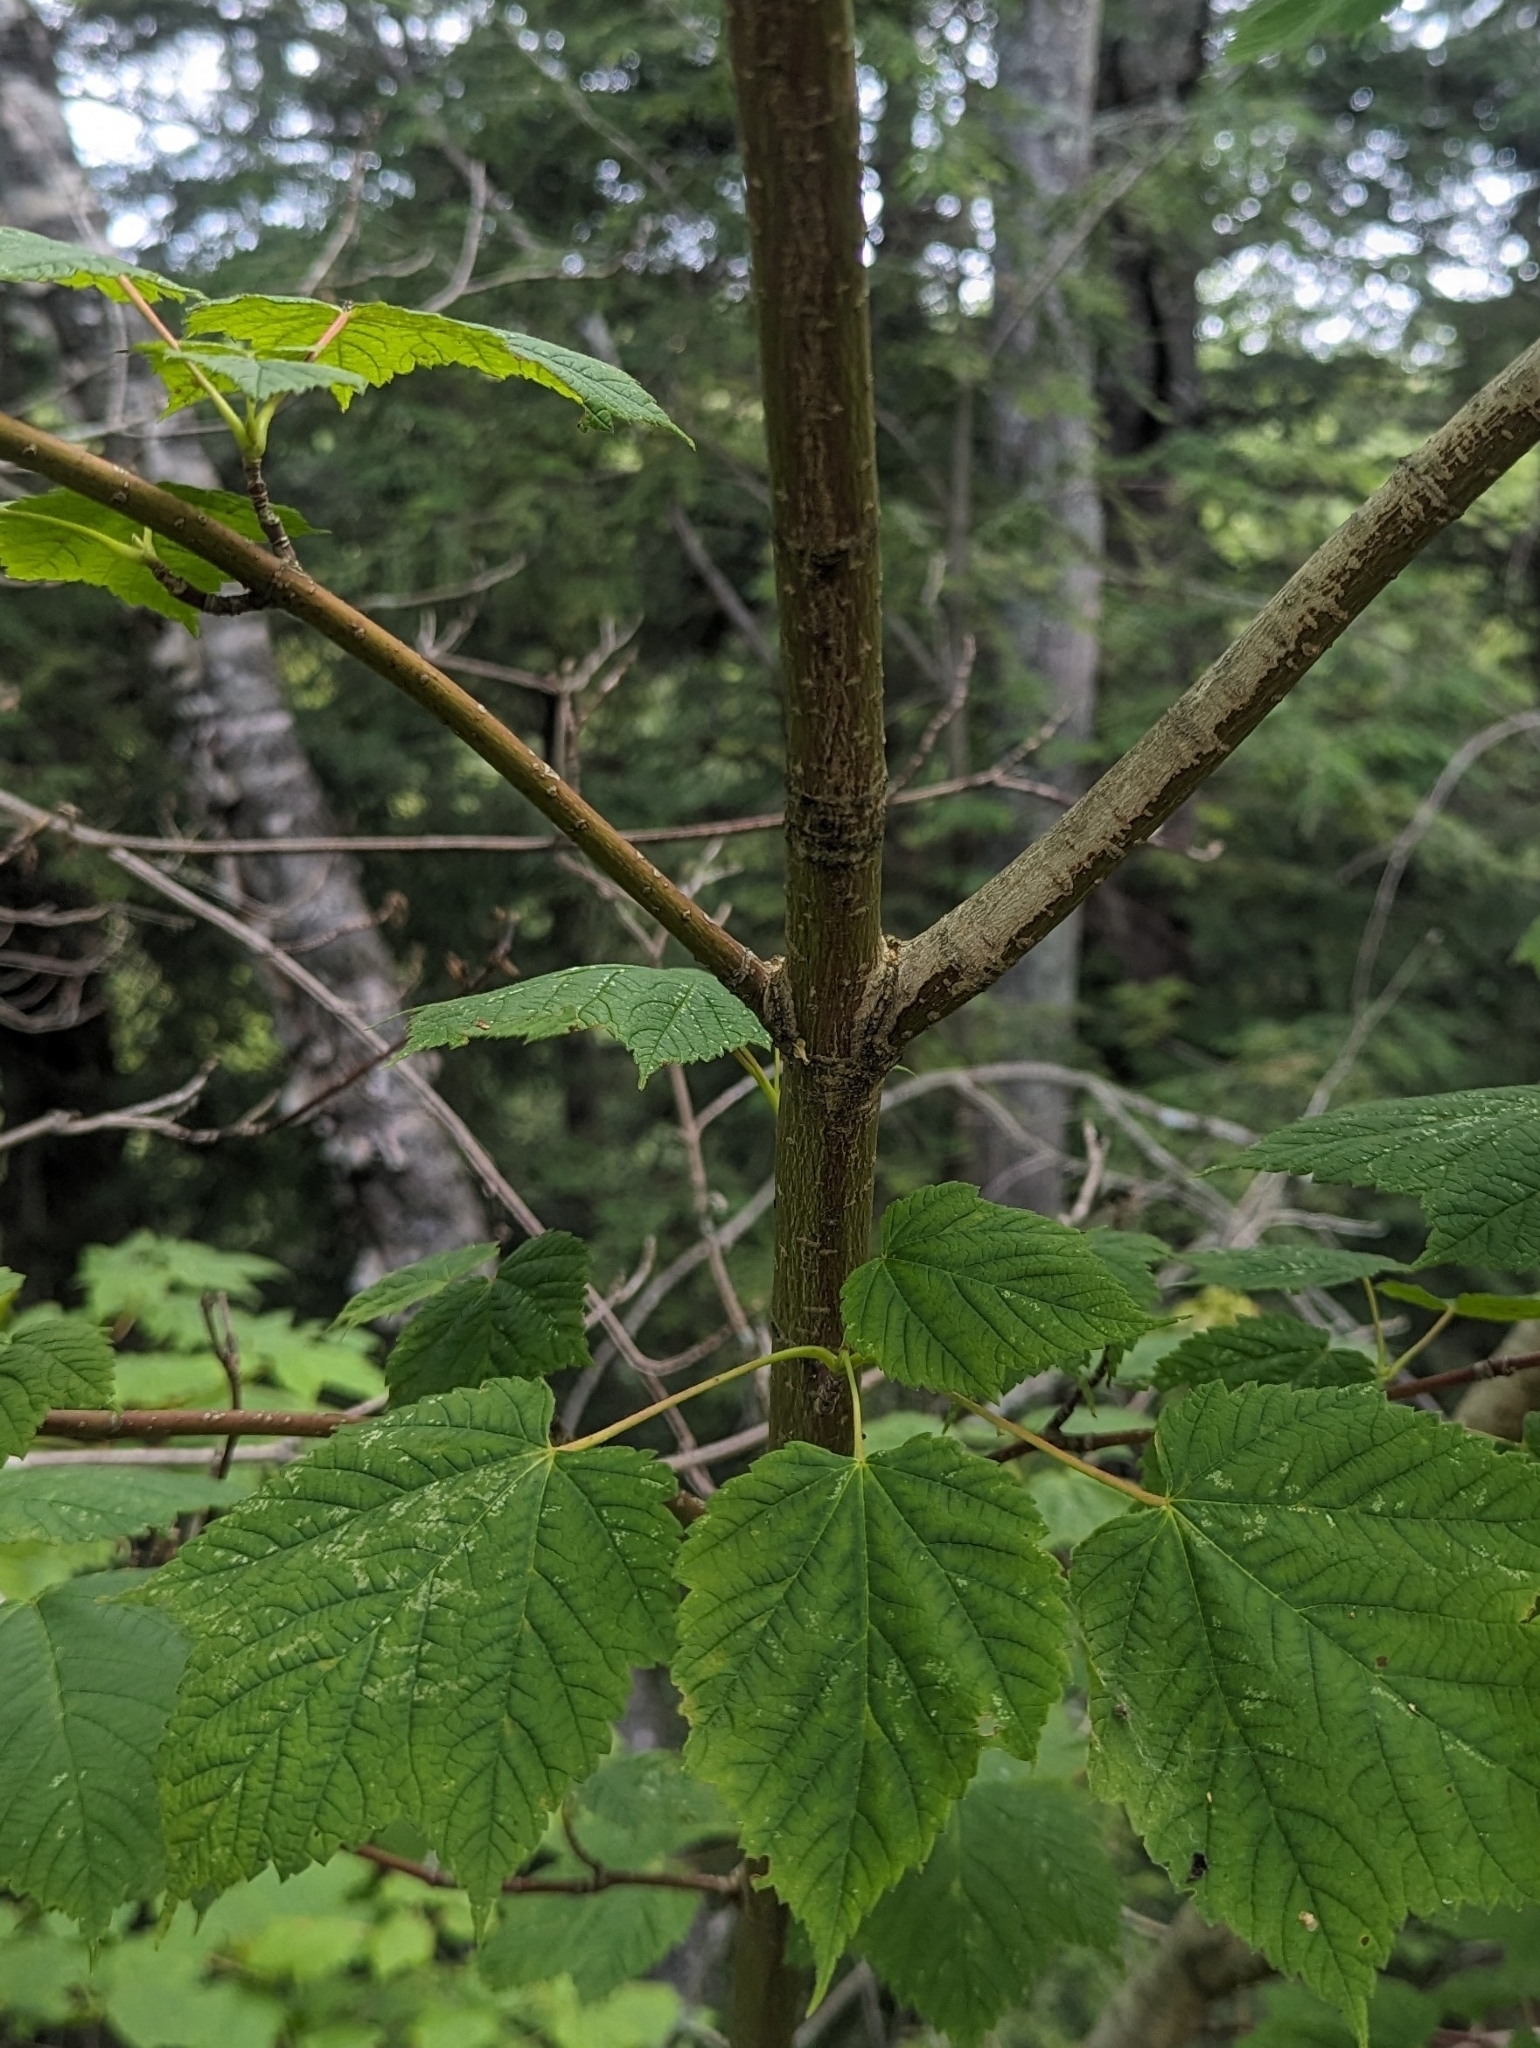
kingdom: Plantae
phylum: Tracheophyta
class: Magnoliopsida
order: Sapindales
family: Sapindaceae
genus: Acer
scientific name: Acer spicatum
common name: Mountain maple
